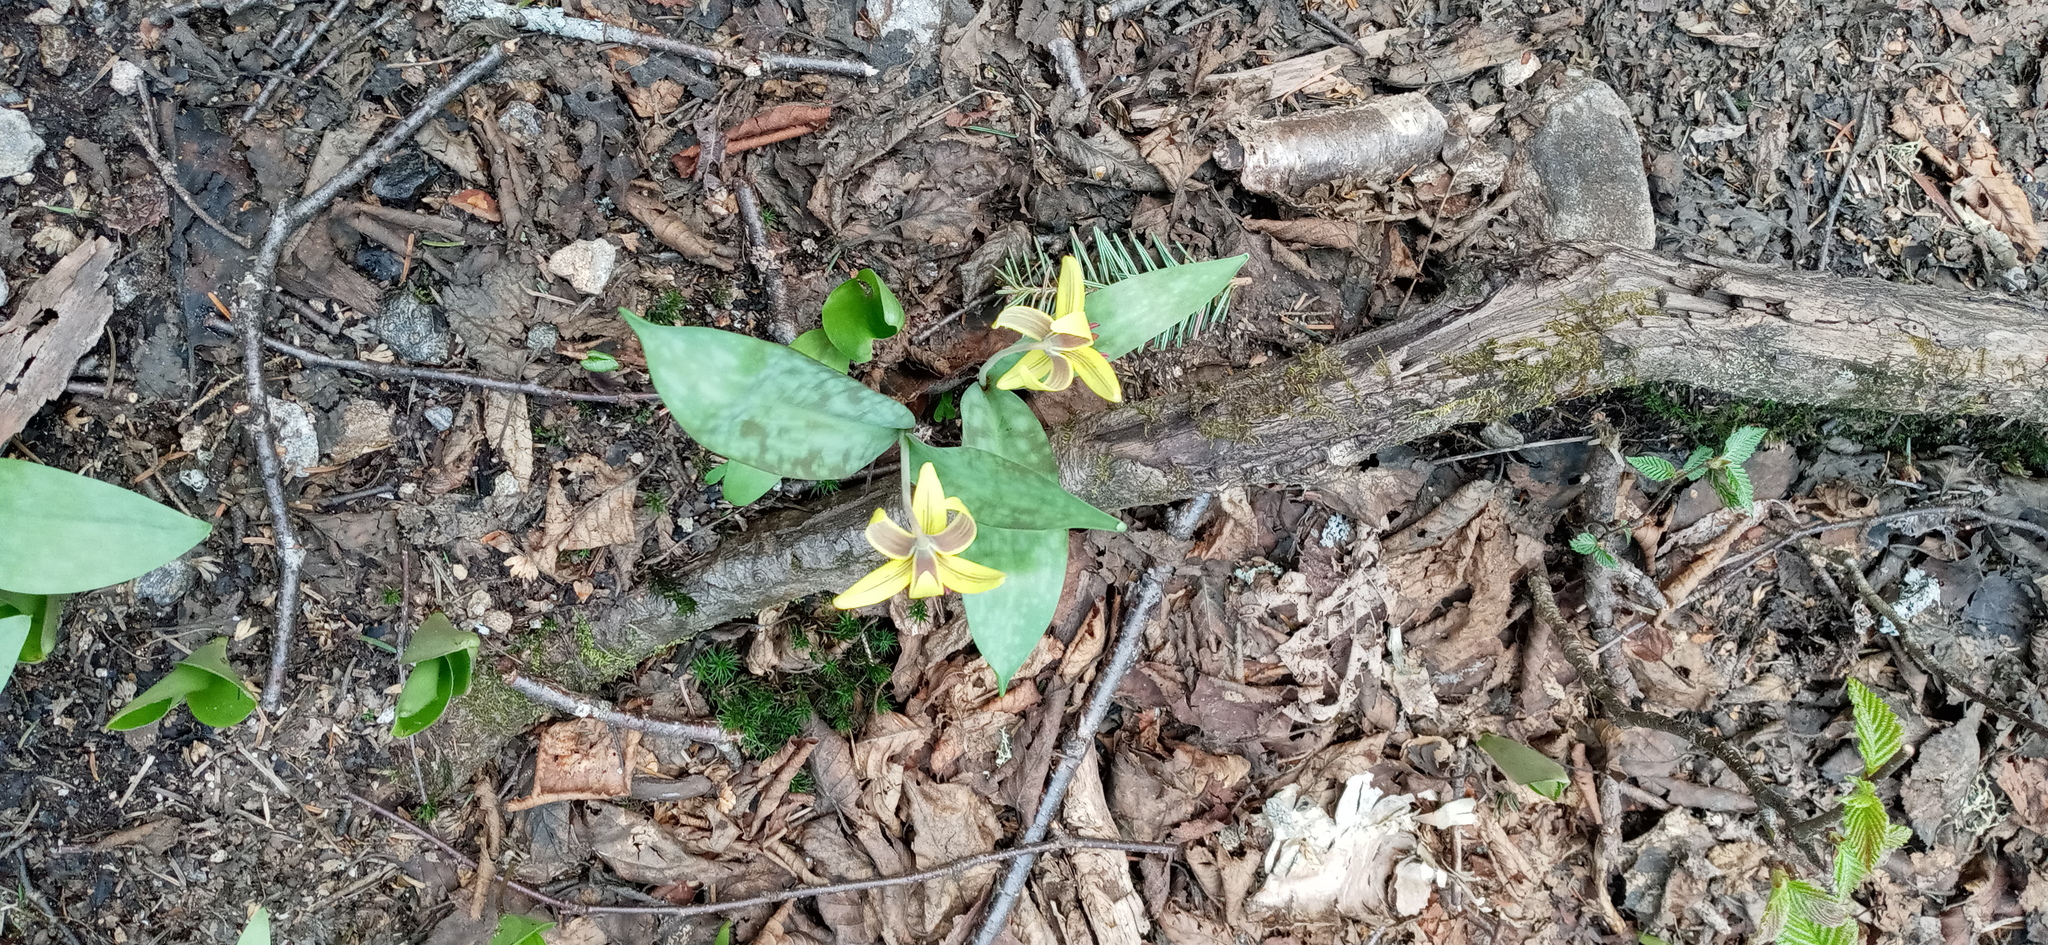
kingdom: Plantae
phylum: Tracheophyta
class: Liliopsida
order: Liliales
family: Liliaceae
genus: Erythronium
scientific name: Erythronium americanum
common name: Yellow adder's-tongue
